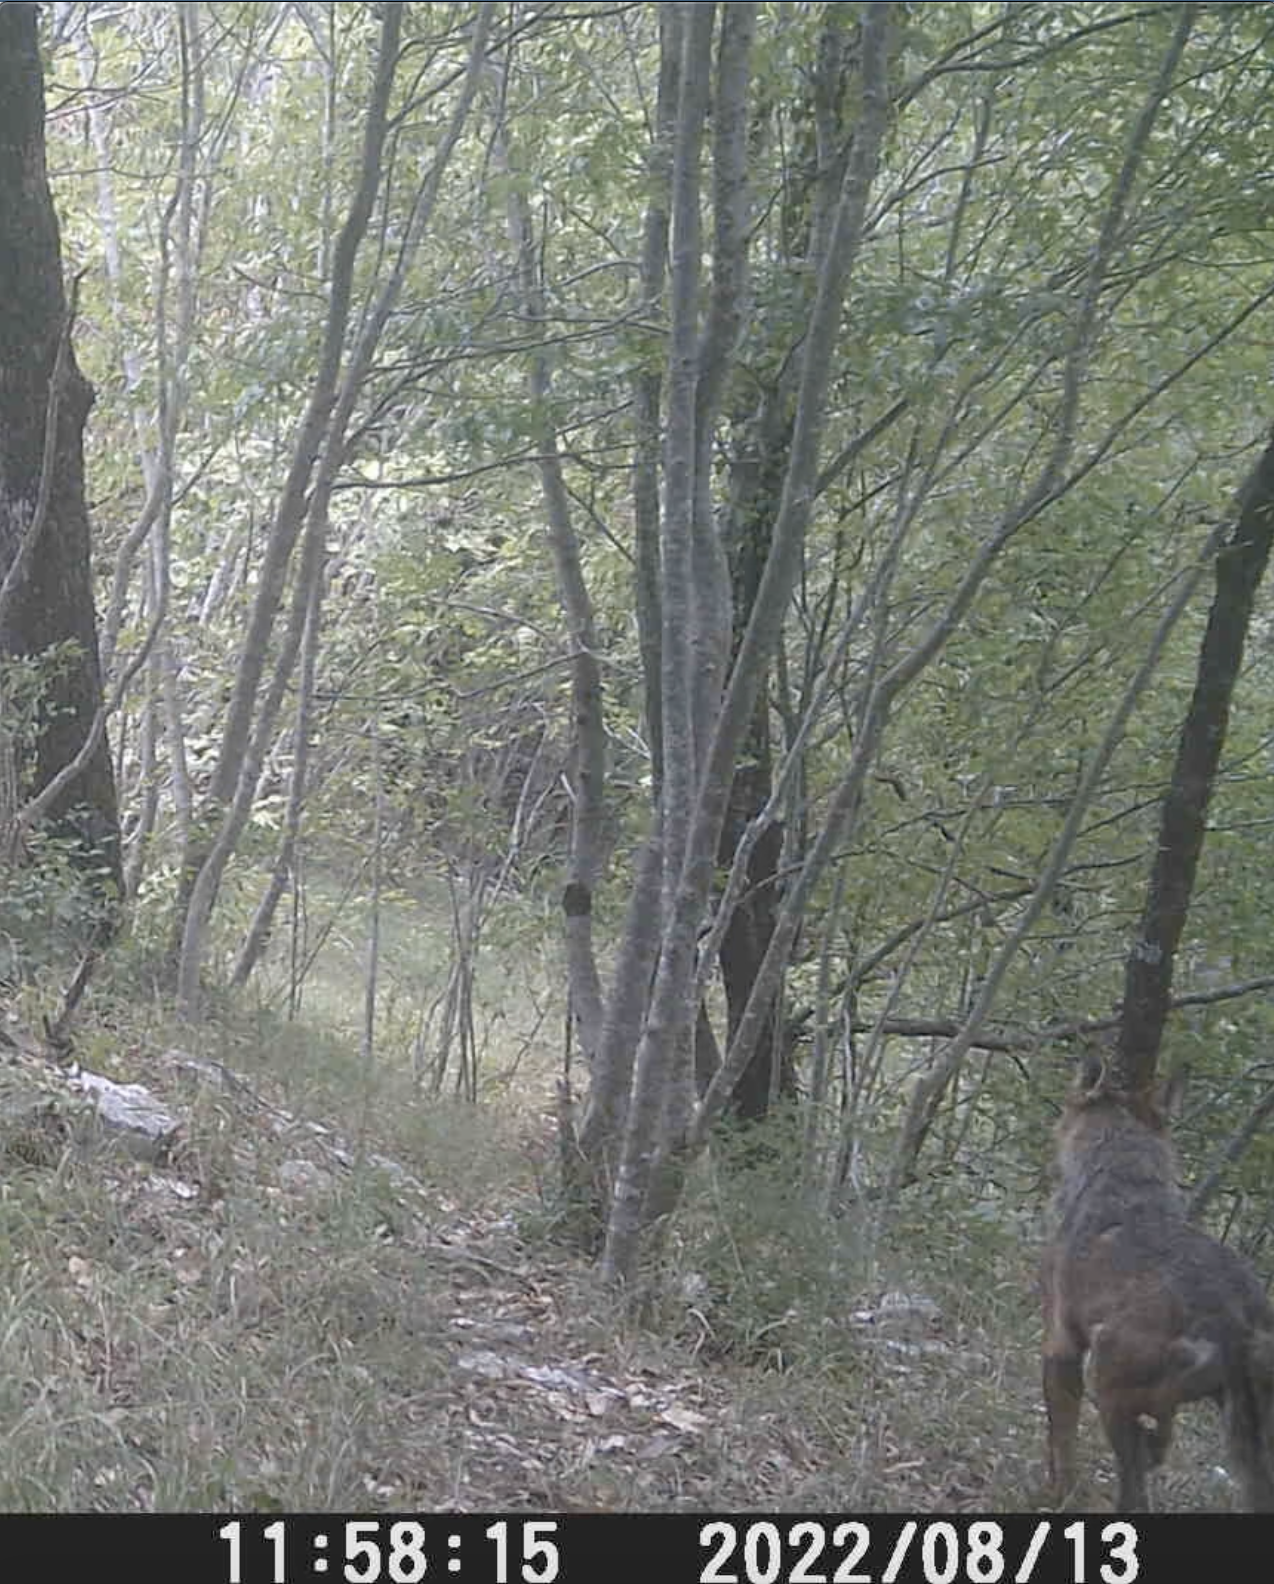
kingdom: Animalia
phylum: Chordata
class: Mammalia
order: Carnivora
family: Canidae
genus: Canis
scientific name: Canis lupus
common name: Gray wolf
